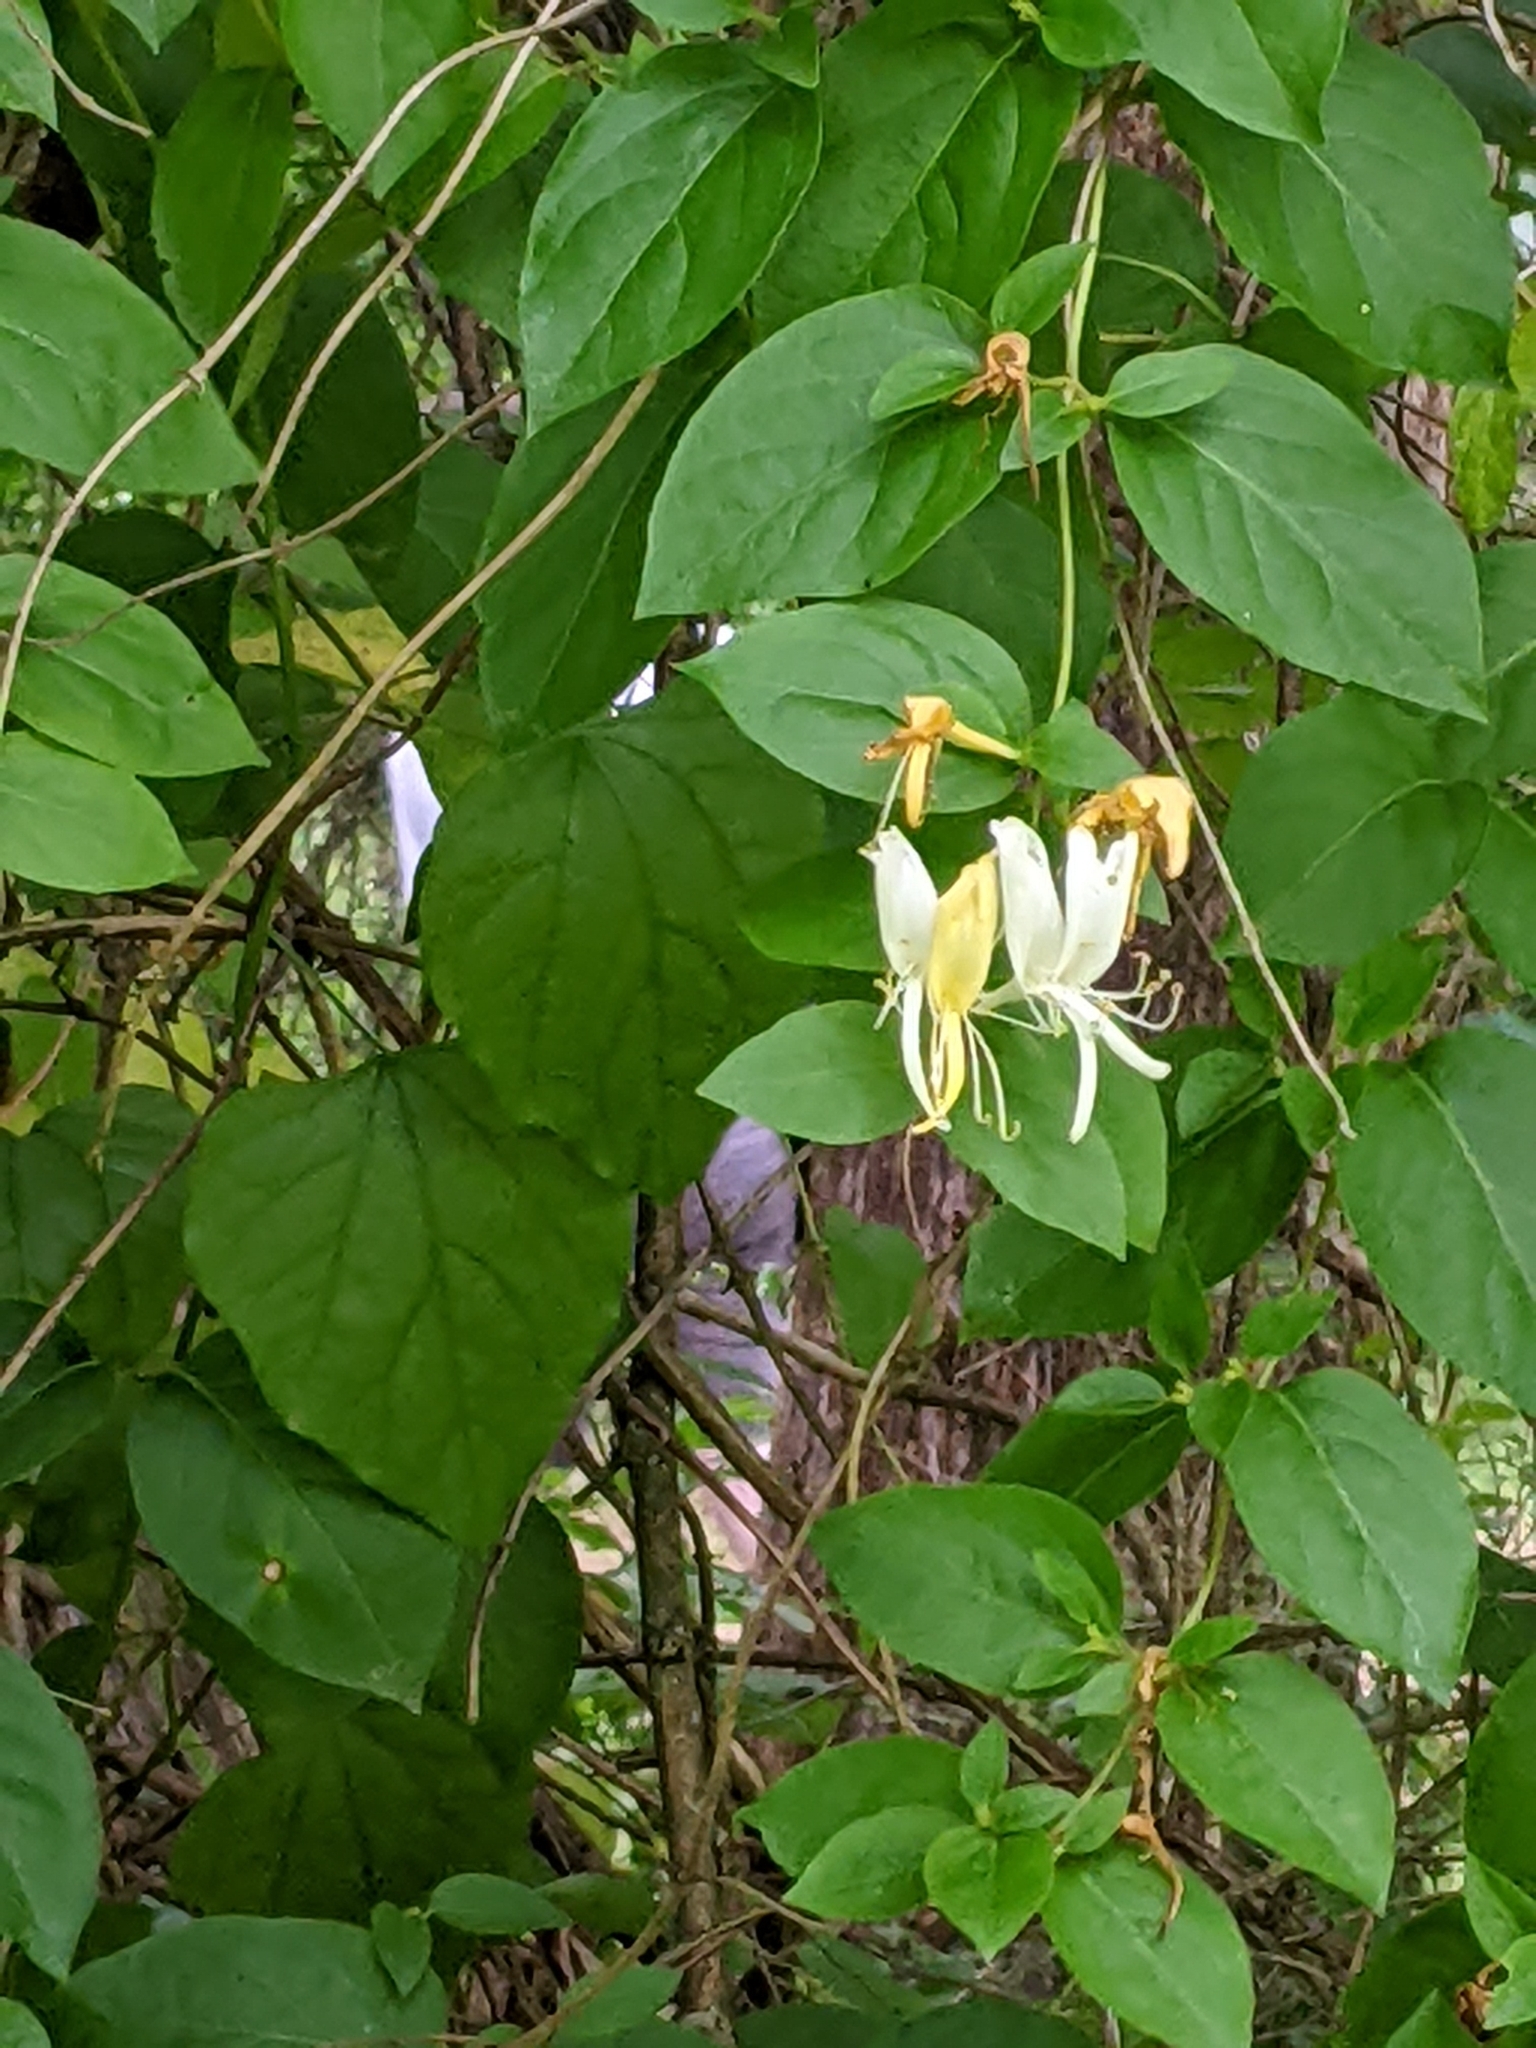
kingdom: Plantae
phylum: Tracheophyta
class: Magnoliopsida
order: Dipsacales
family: Caprifoliaceae
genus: Lonicera
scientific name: Lonicera japonica
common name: Japanese honeysuckle
